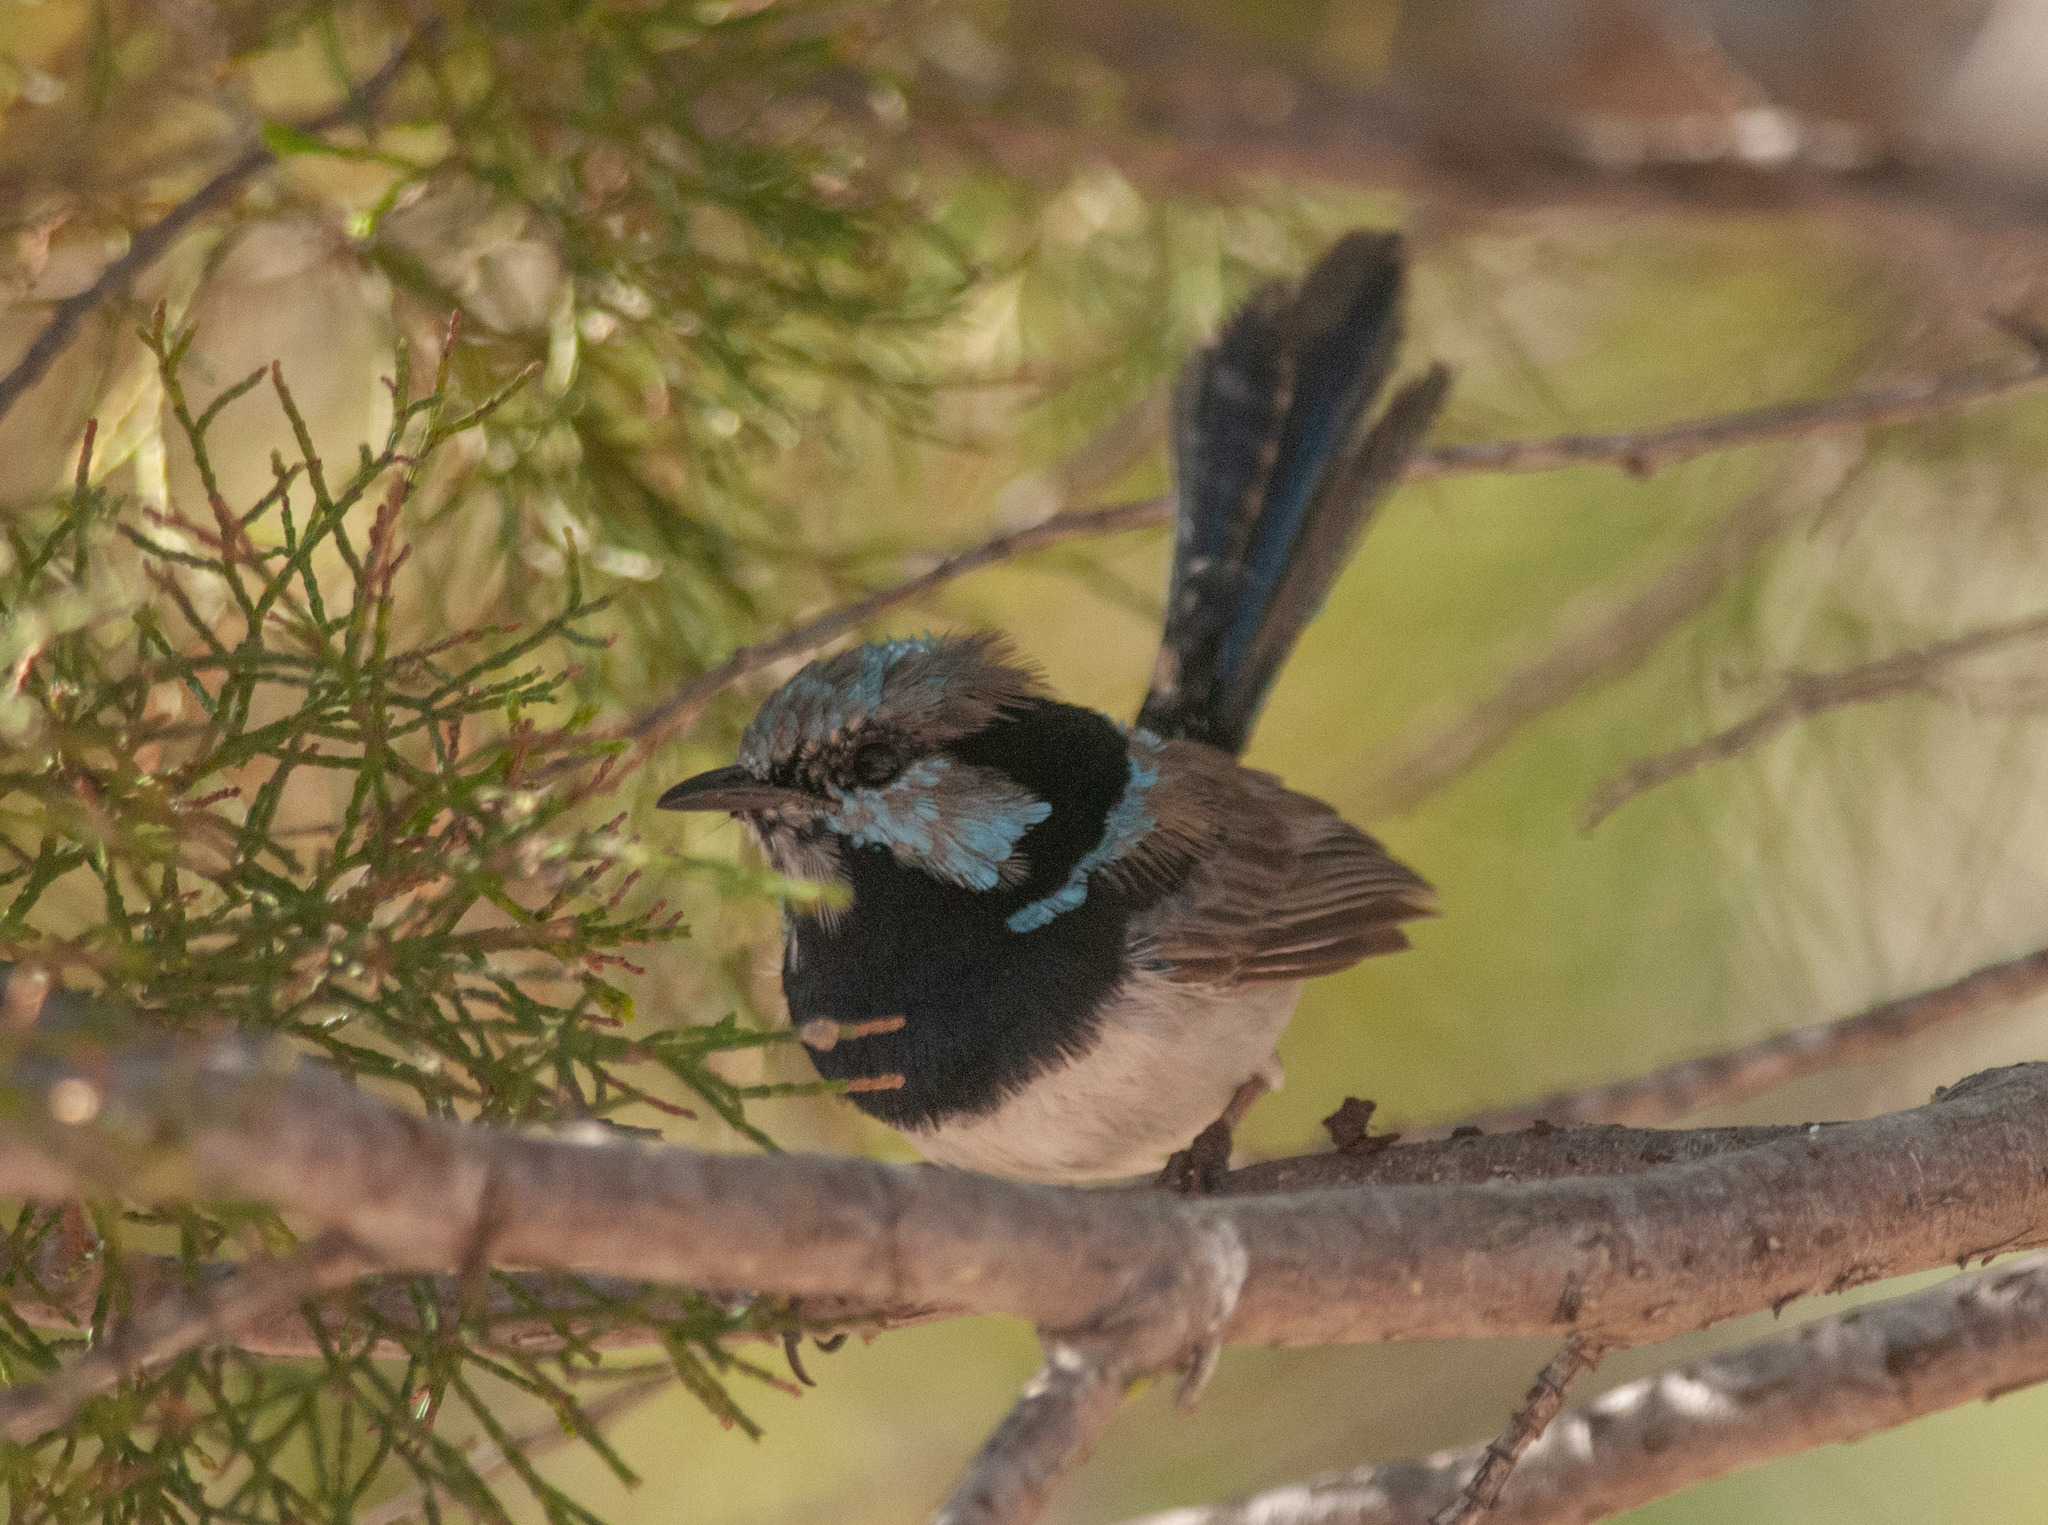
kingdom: Animalia
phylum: Chordata
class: Aves
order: Passeriformes
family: Maluridae
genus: Malurus
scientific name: Malurus cyaneus
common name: Superb fairywren
